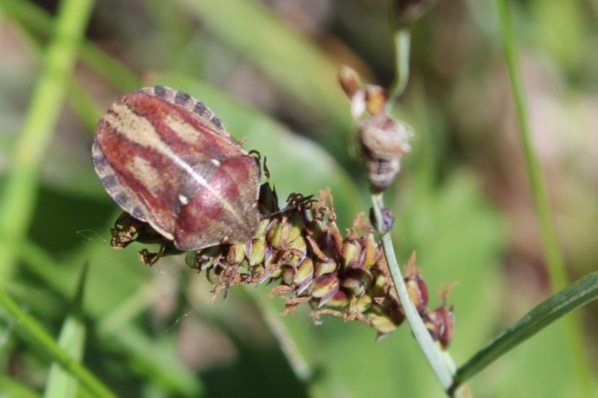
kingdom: Animalia
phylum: Arthropoda
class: Insecta
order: Hemiptera
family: Scutelleridae
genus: Eurygaster
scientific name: Eurygaster testudinaria
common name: Tortoise bug
